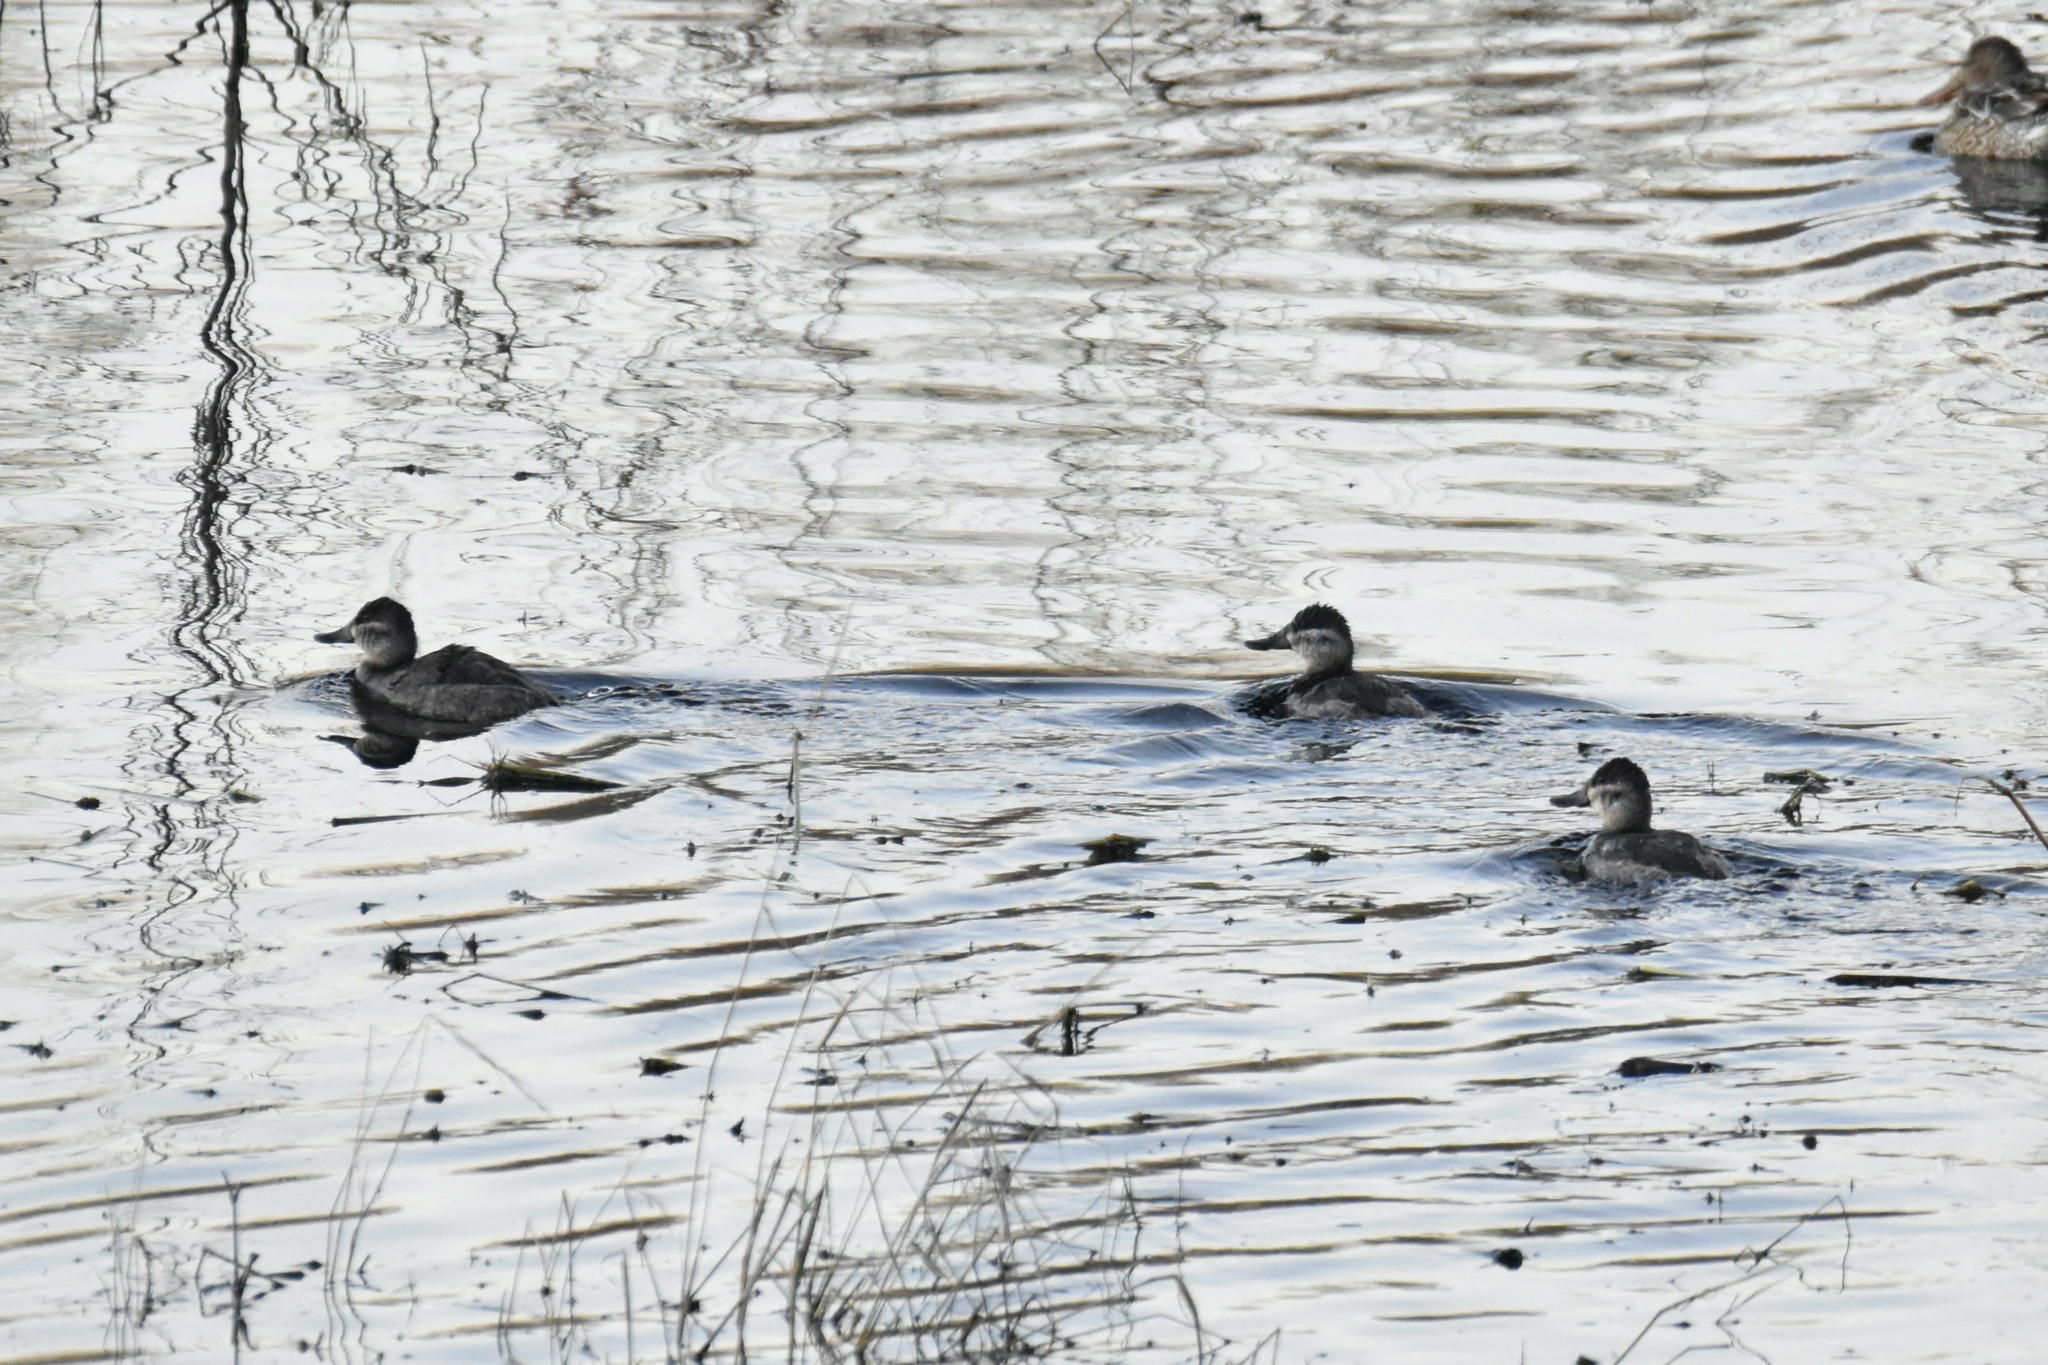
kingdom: Animalia
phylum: Chordata
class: Aves
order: Anseriformes
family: Anatidae
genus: Oxyura
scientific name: Oxyura jamaicensis
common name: Ruddy duck
